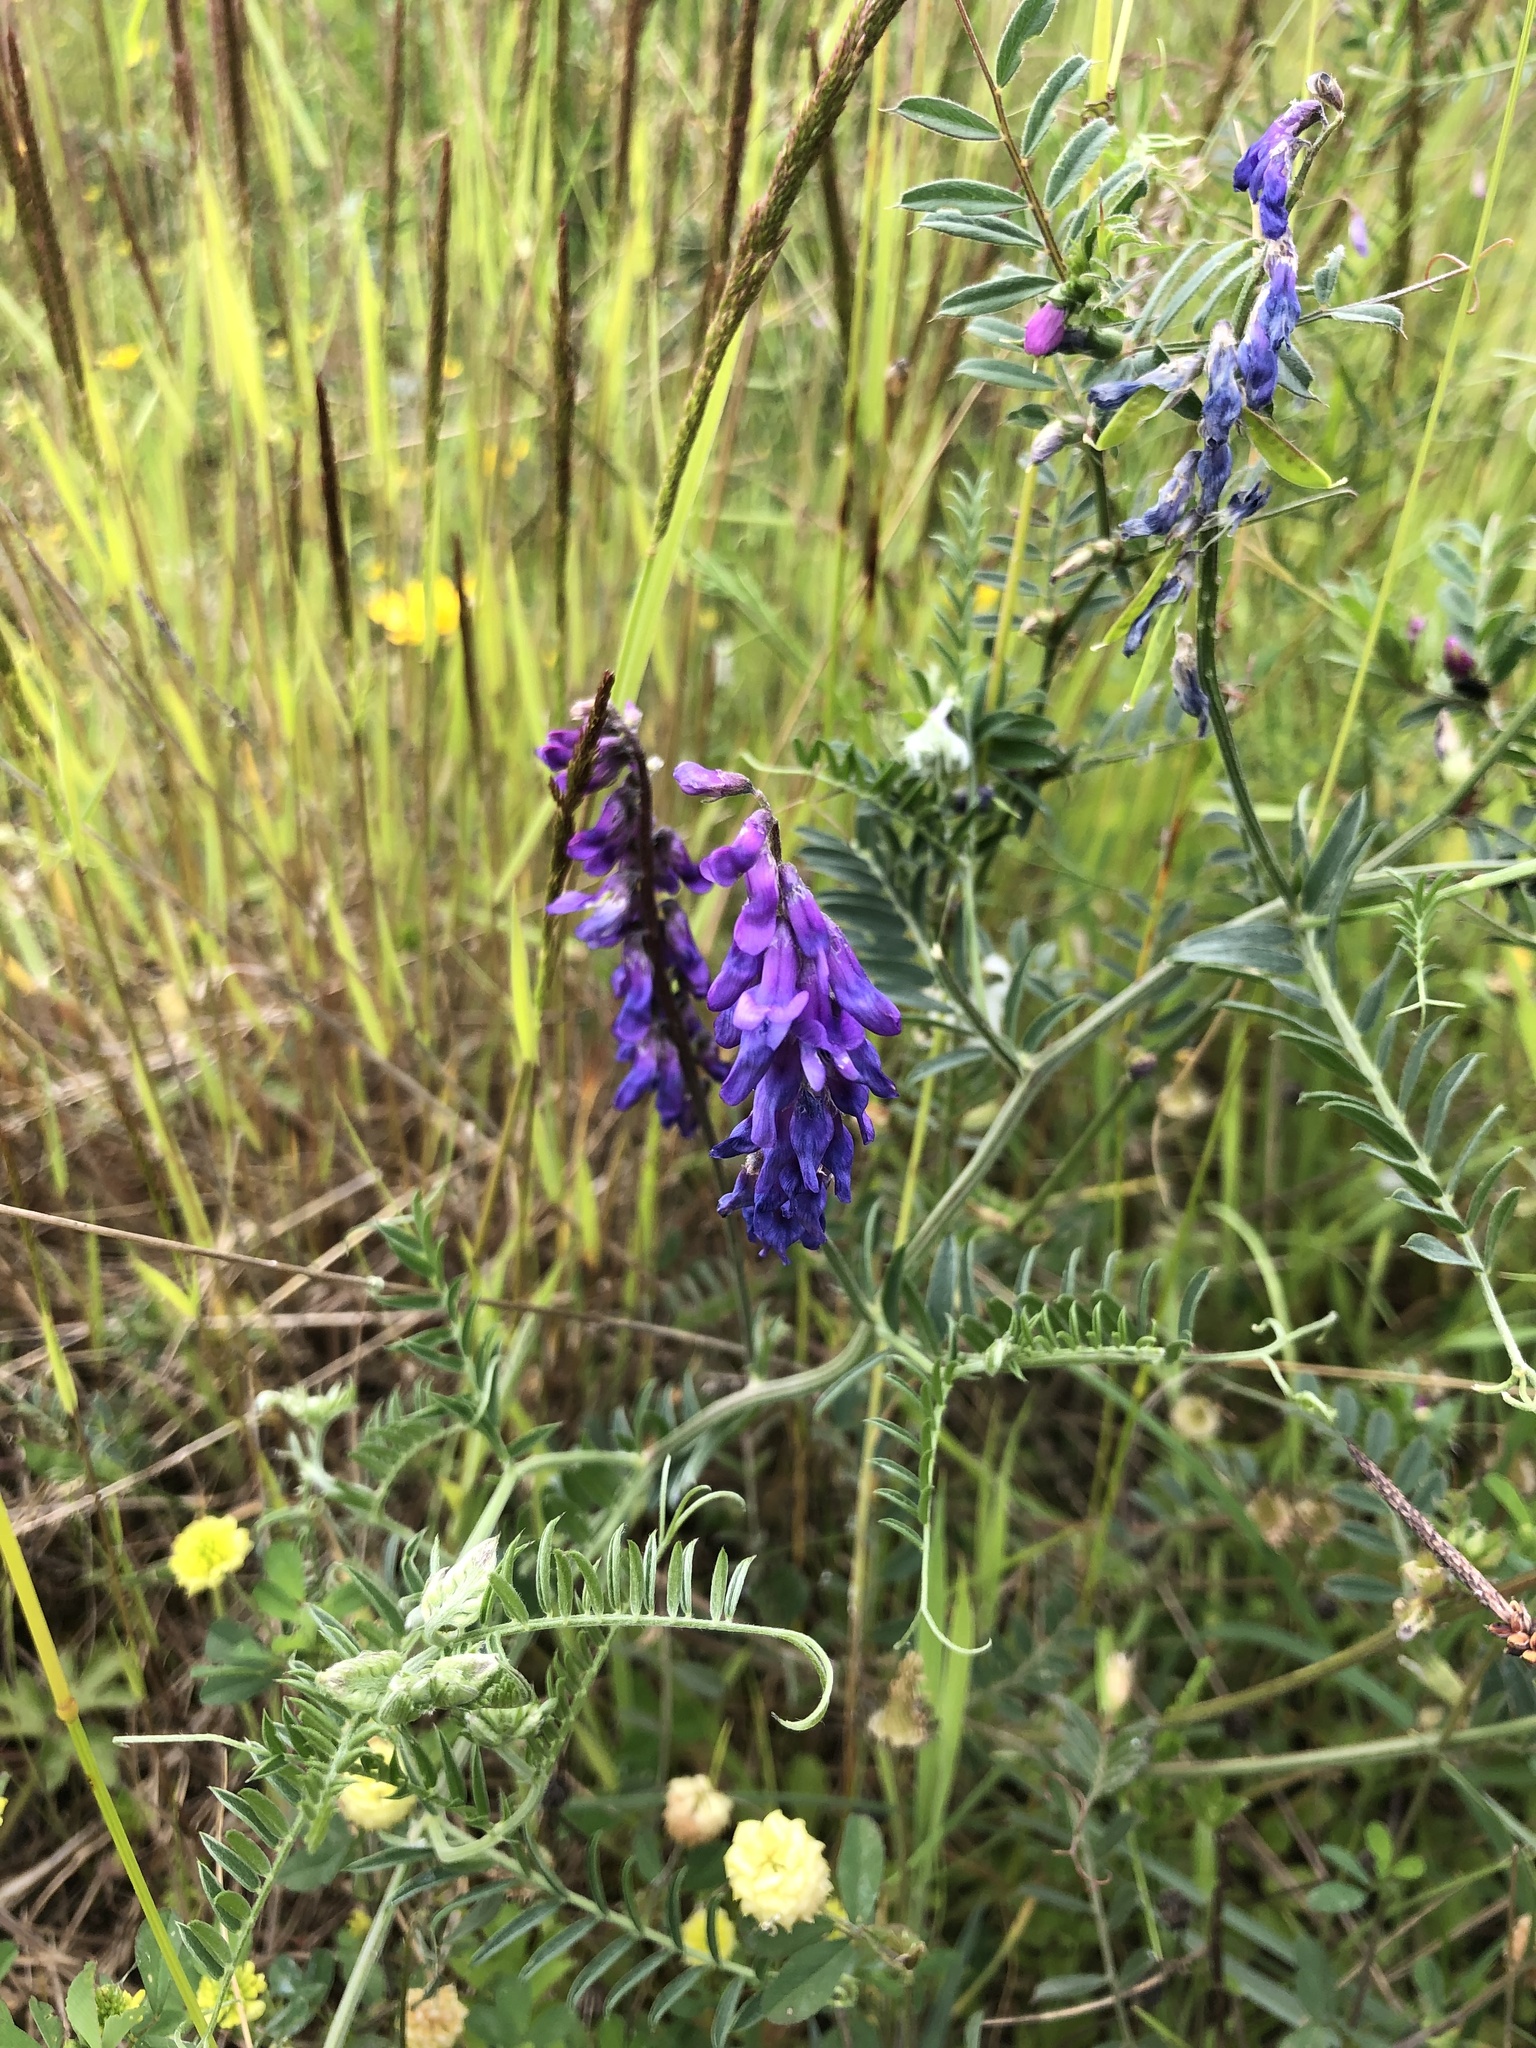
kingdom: Plantae
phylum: Tracheophyta
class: Magnoliopsida
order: Fabales
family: Fabaceae
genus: Vicia
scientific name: Vicia cracca
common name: Bird vetch
